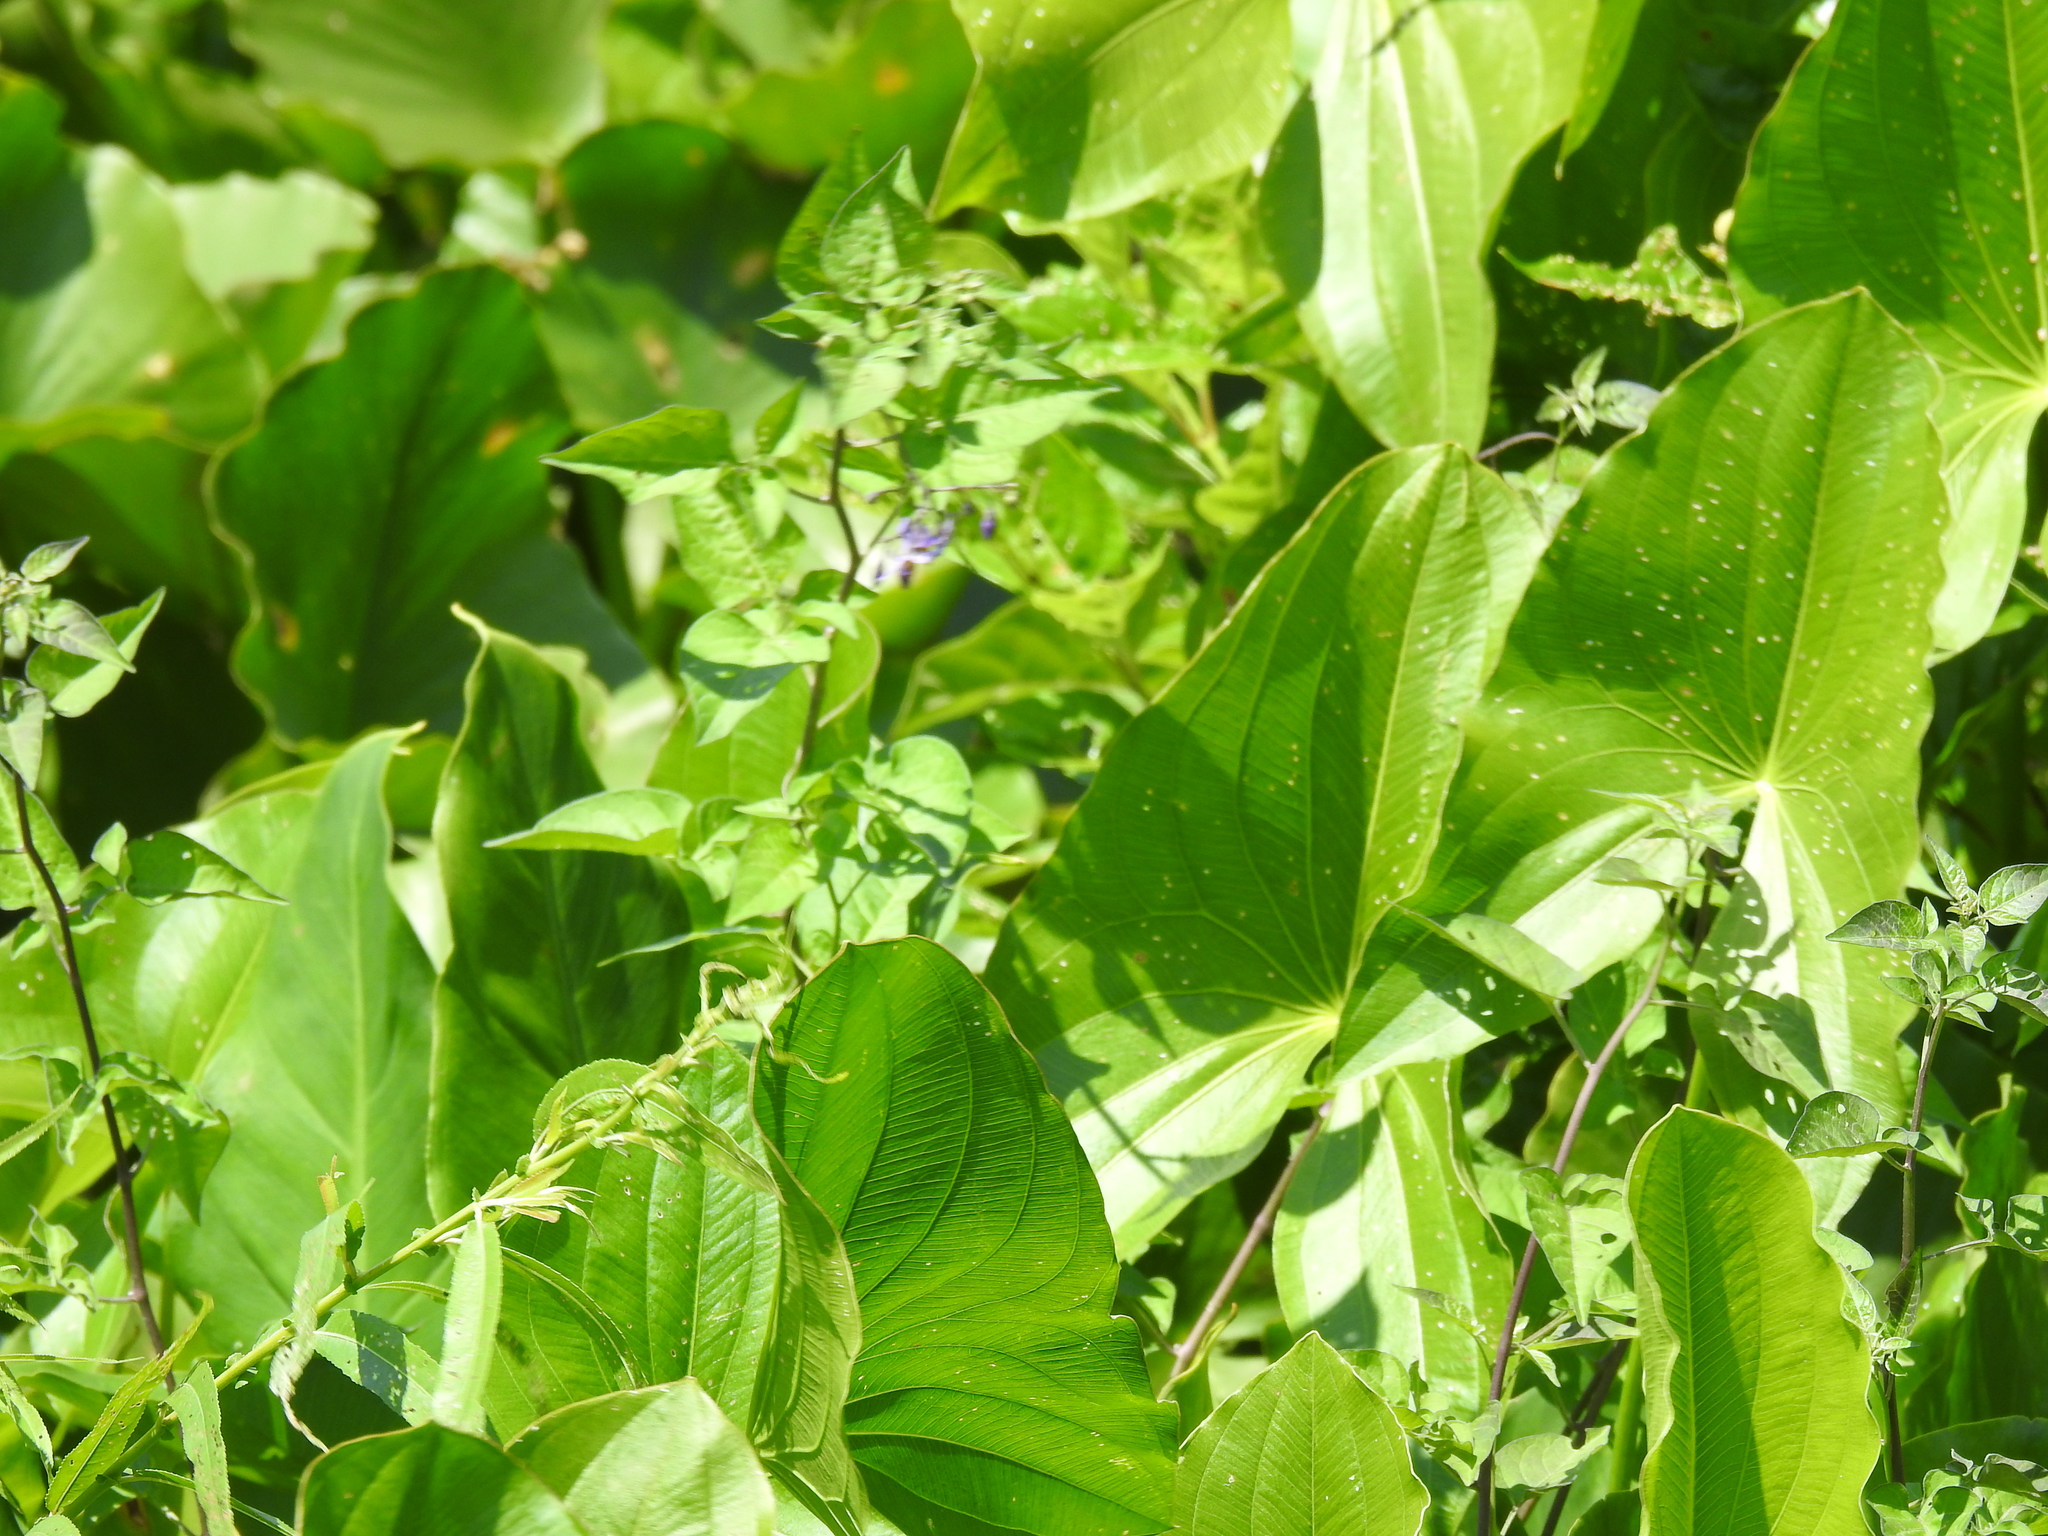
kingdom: Plantae
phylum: Tracheophyta
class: Magnoliopsida
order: Solanales
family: Solanaceae
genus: Solanum
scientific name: Solanum dulcamara
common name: Climbing nightshade
